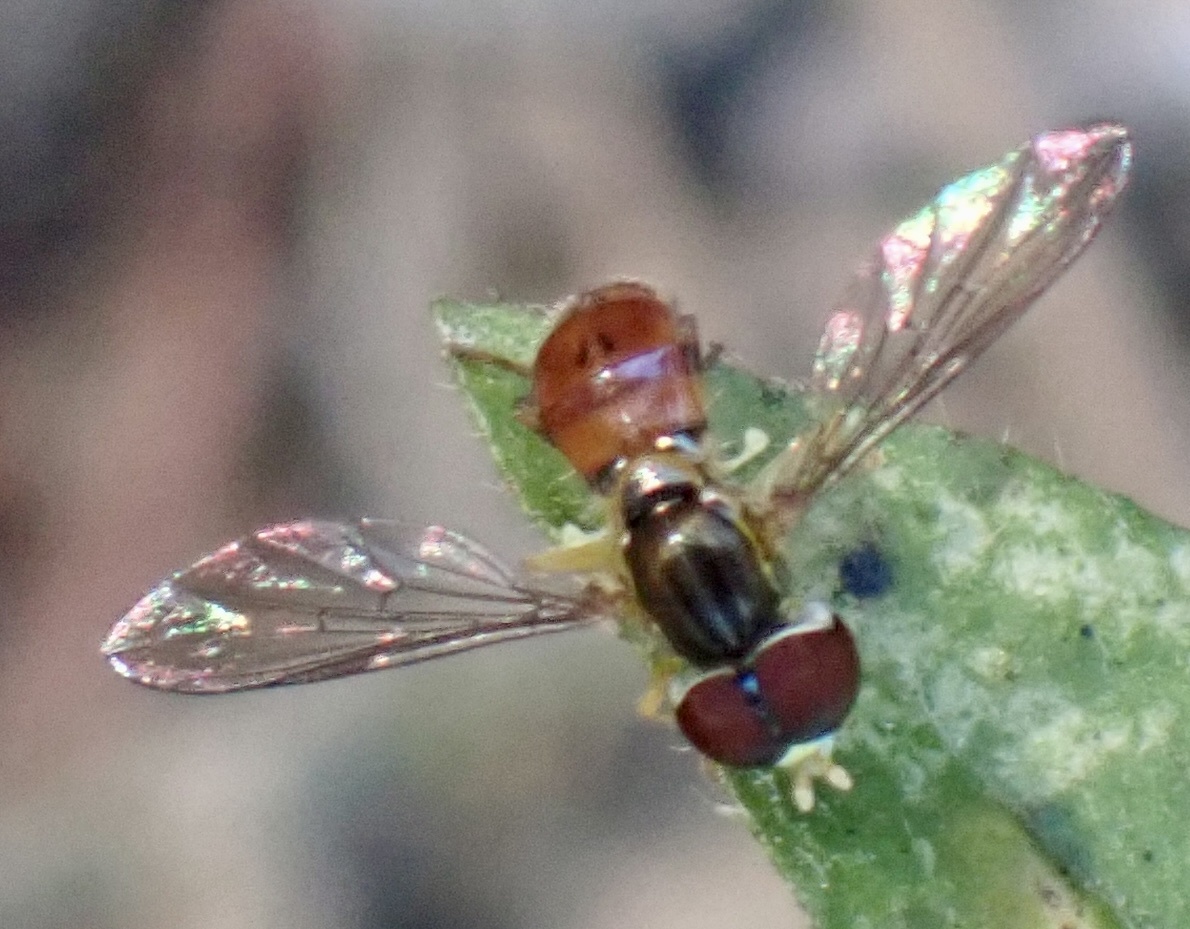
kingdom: Animalia
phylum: Arthropoda
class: Insecta
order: Diptera
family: Syrphidae
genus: Toxomerus
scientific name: Toxomerus boscii
